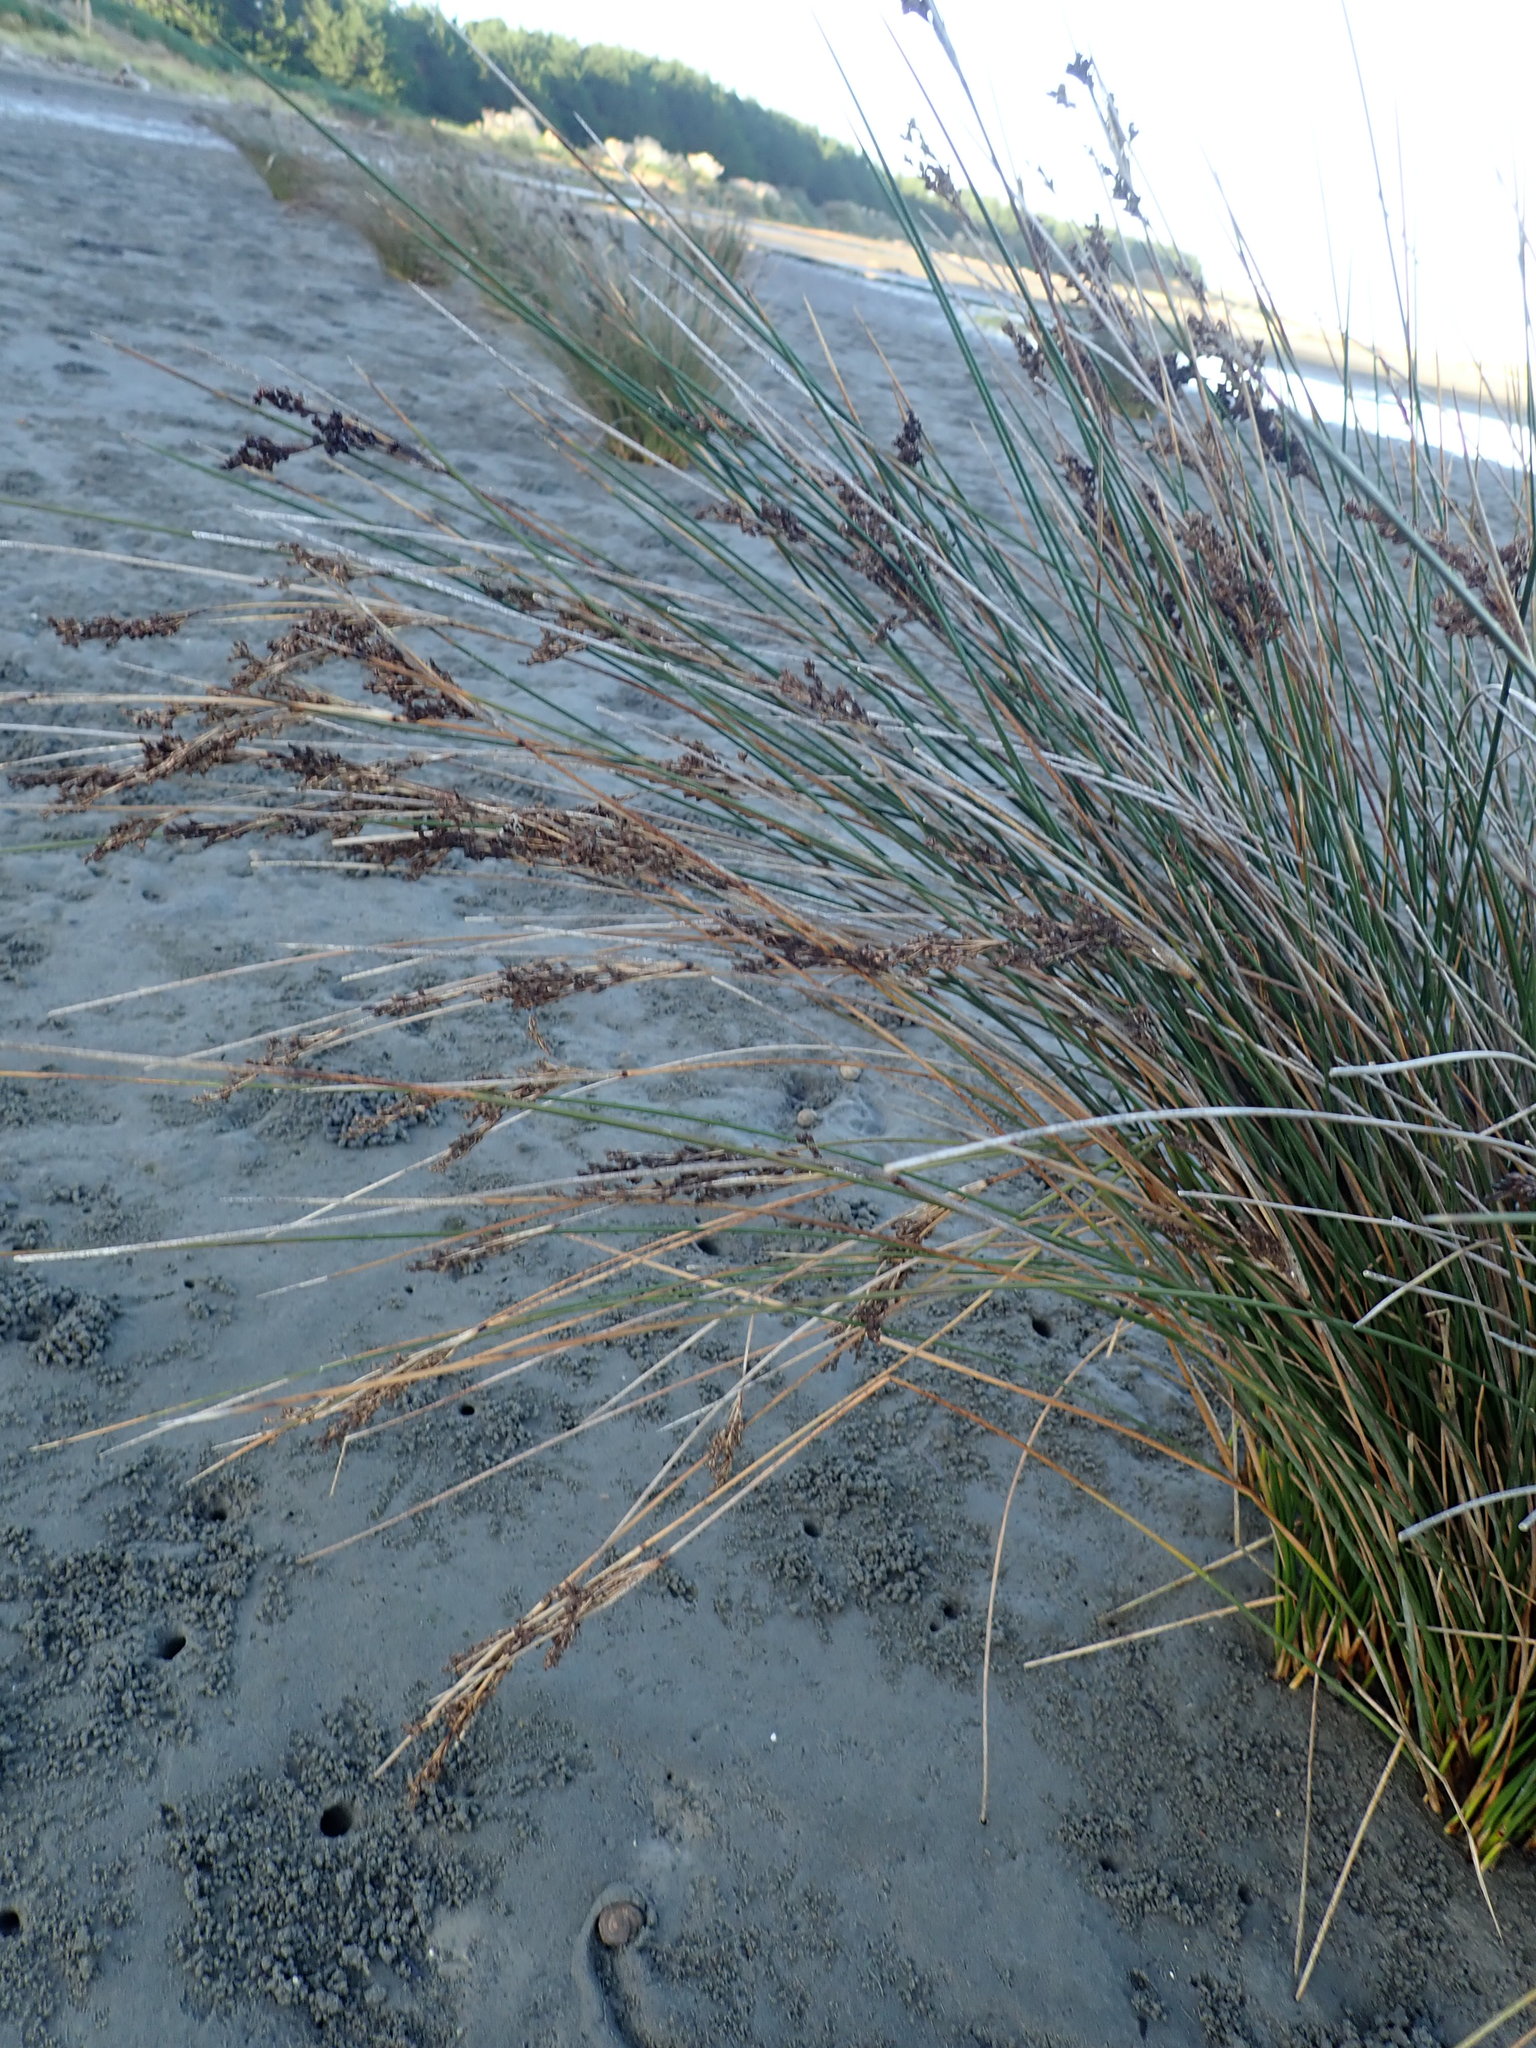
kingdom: Plantae
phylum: Tracheophyta
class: Liliopsida
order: Poales
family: Juncaceae
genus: Juncus
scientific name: Juncus kraussii
